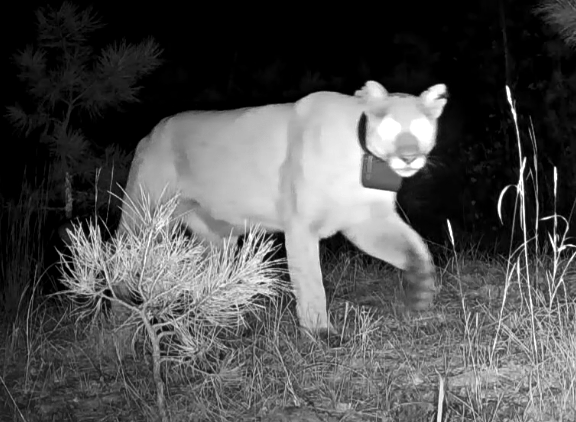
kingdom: Animalia
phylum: Chordata
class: Mammalia
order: Carnivora
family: Felidae
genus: Puma
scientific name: Puma concolor
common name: Puma
